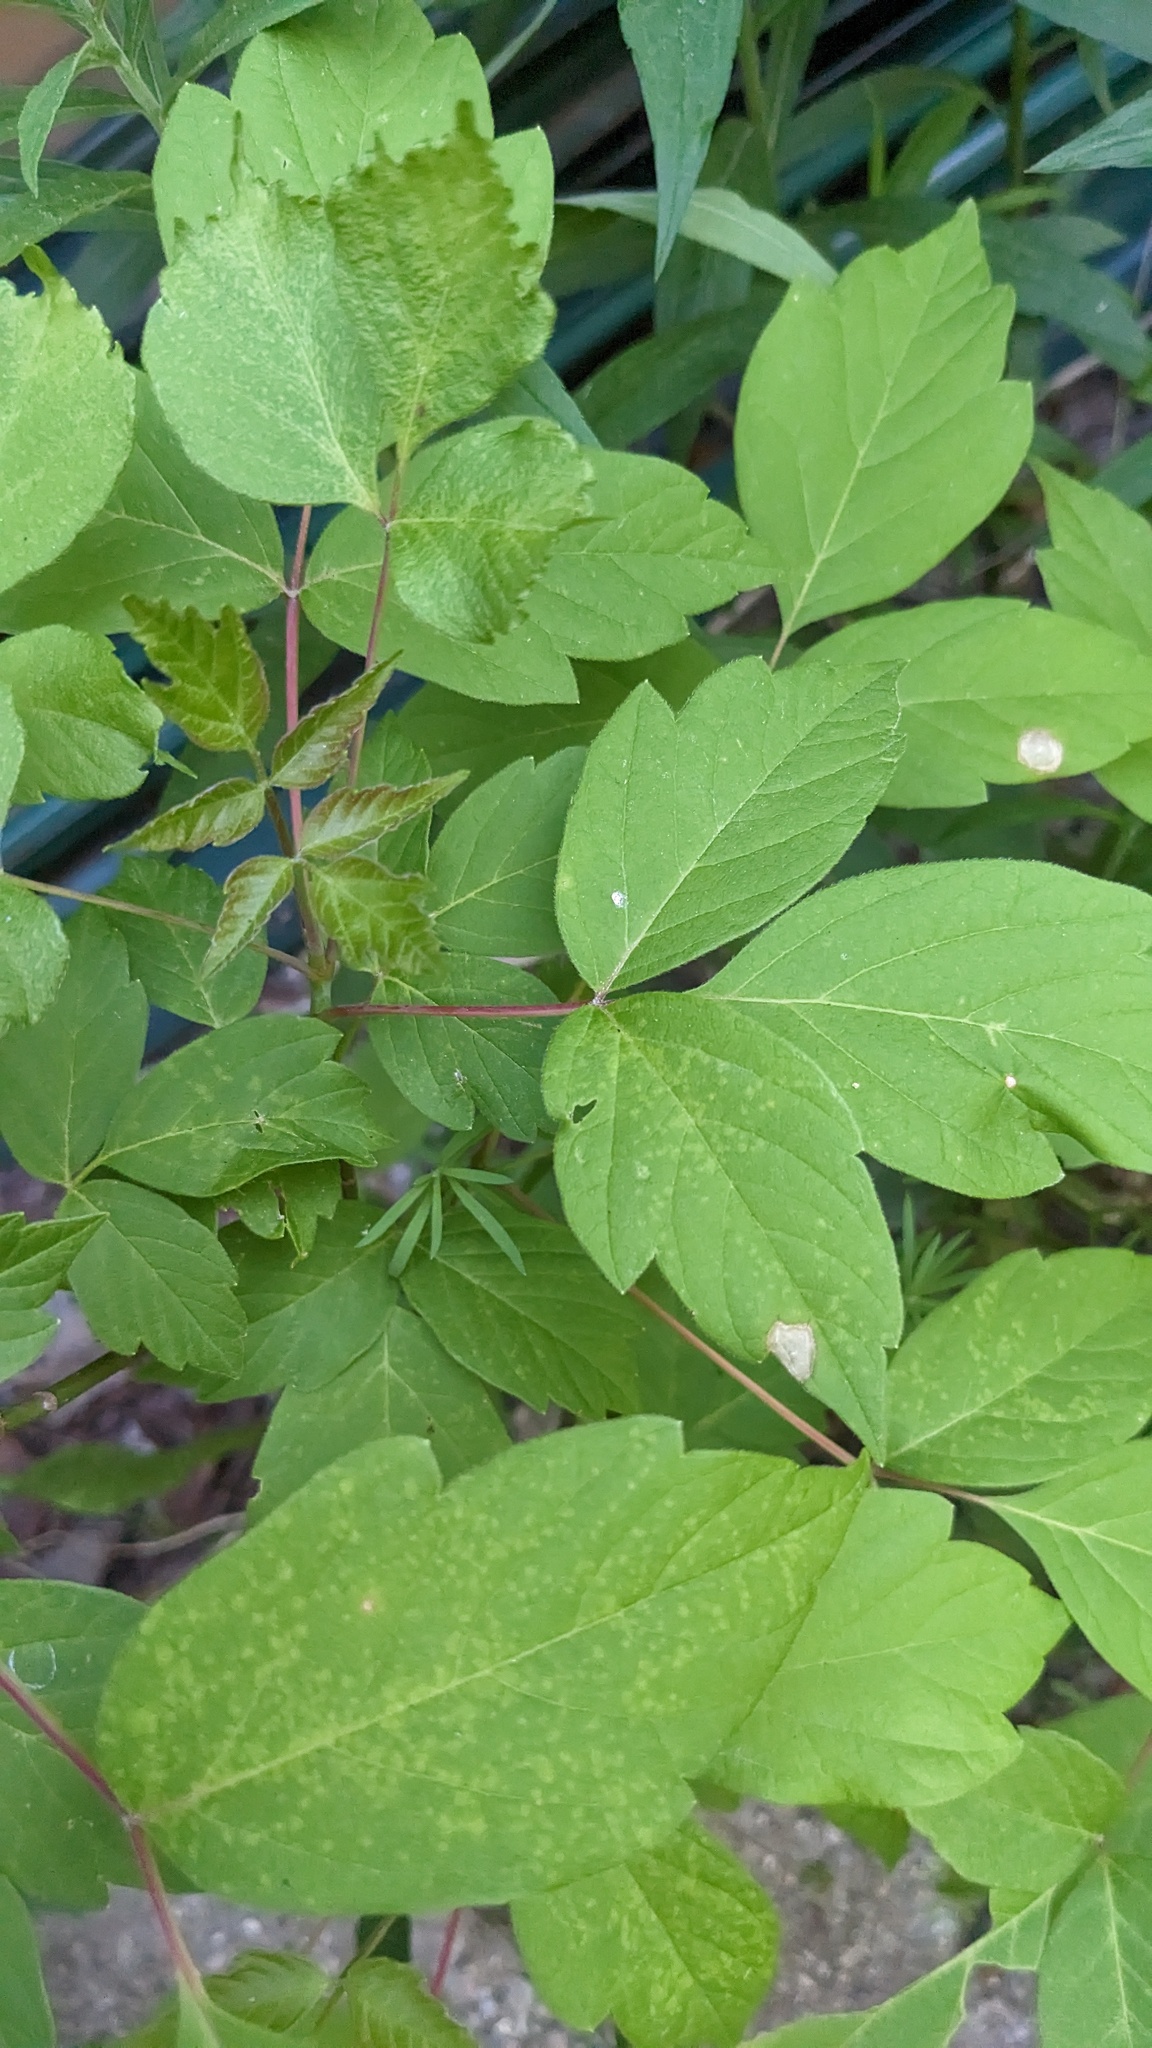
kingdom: Plantae
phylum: Tracheophyta
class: Magnoliopsida
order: Sapindales
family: Sapindaceae
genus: Acer
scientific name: Acer negundo
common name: Ashleaf maple
